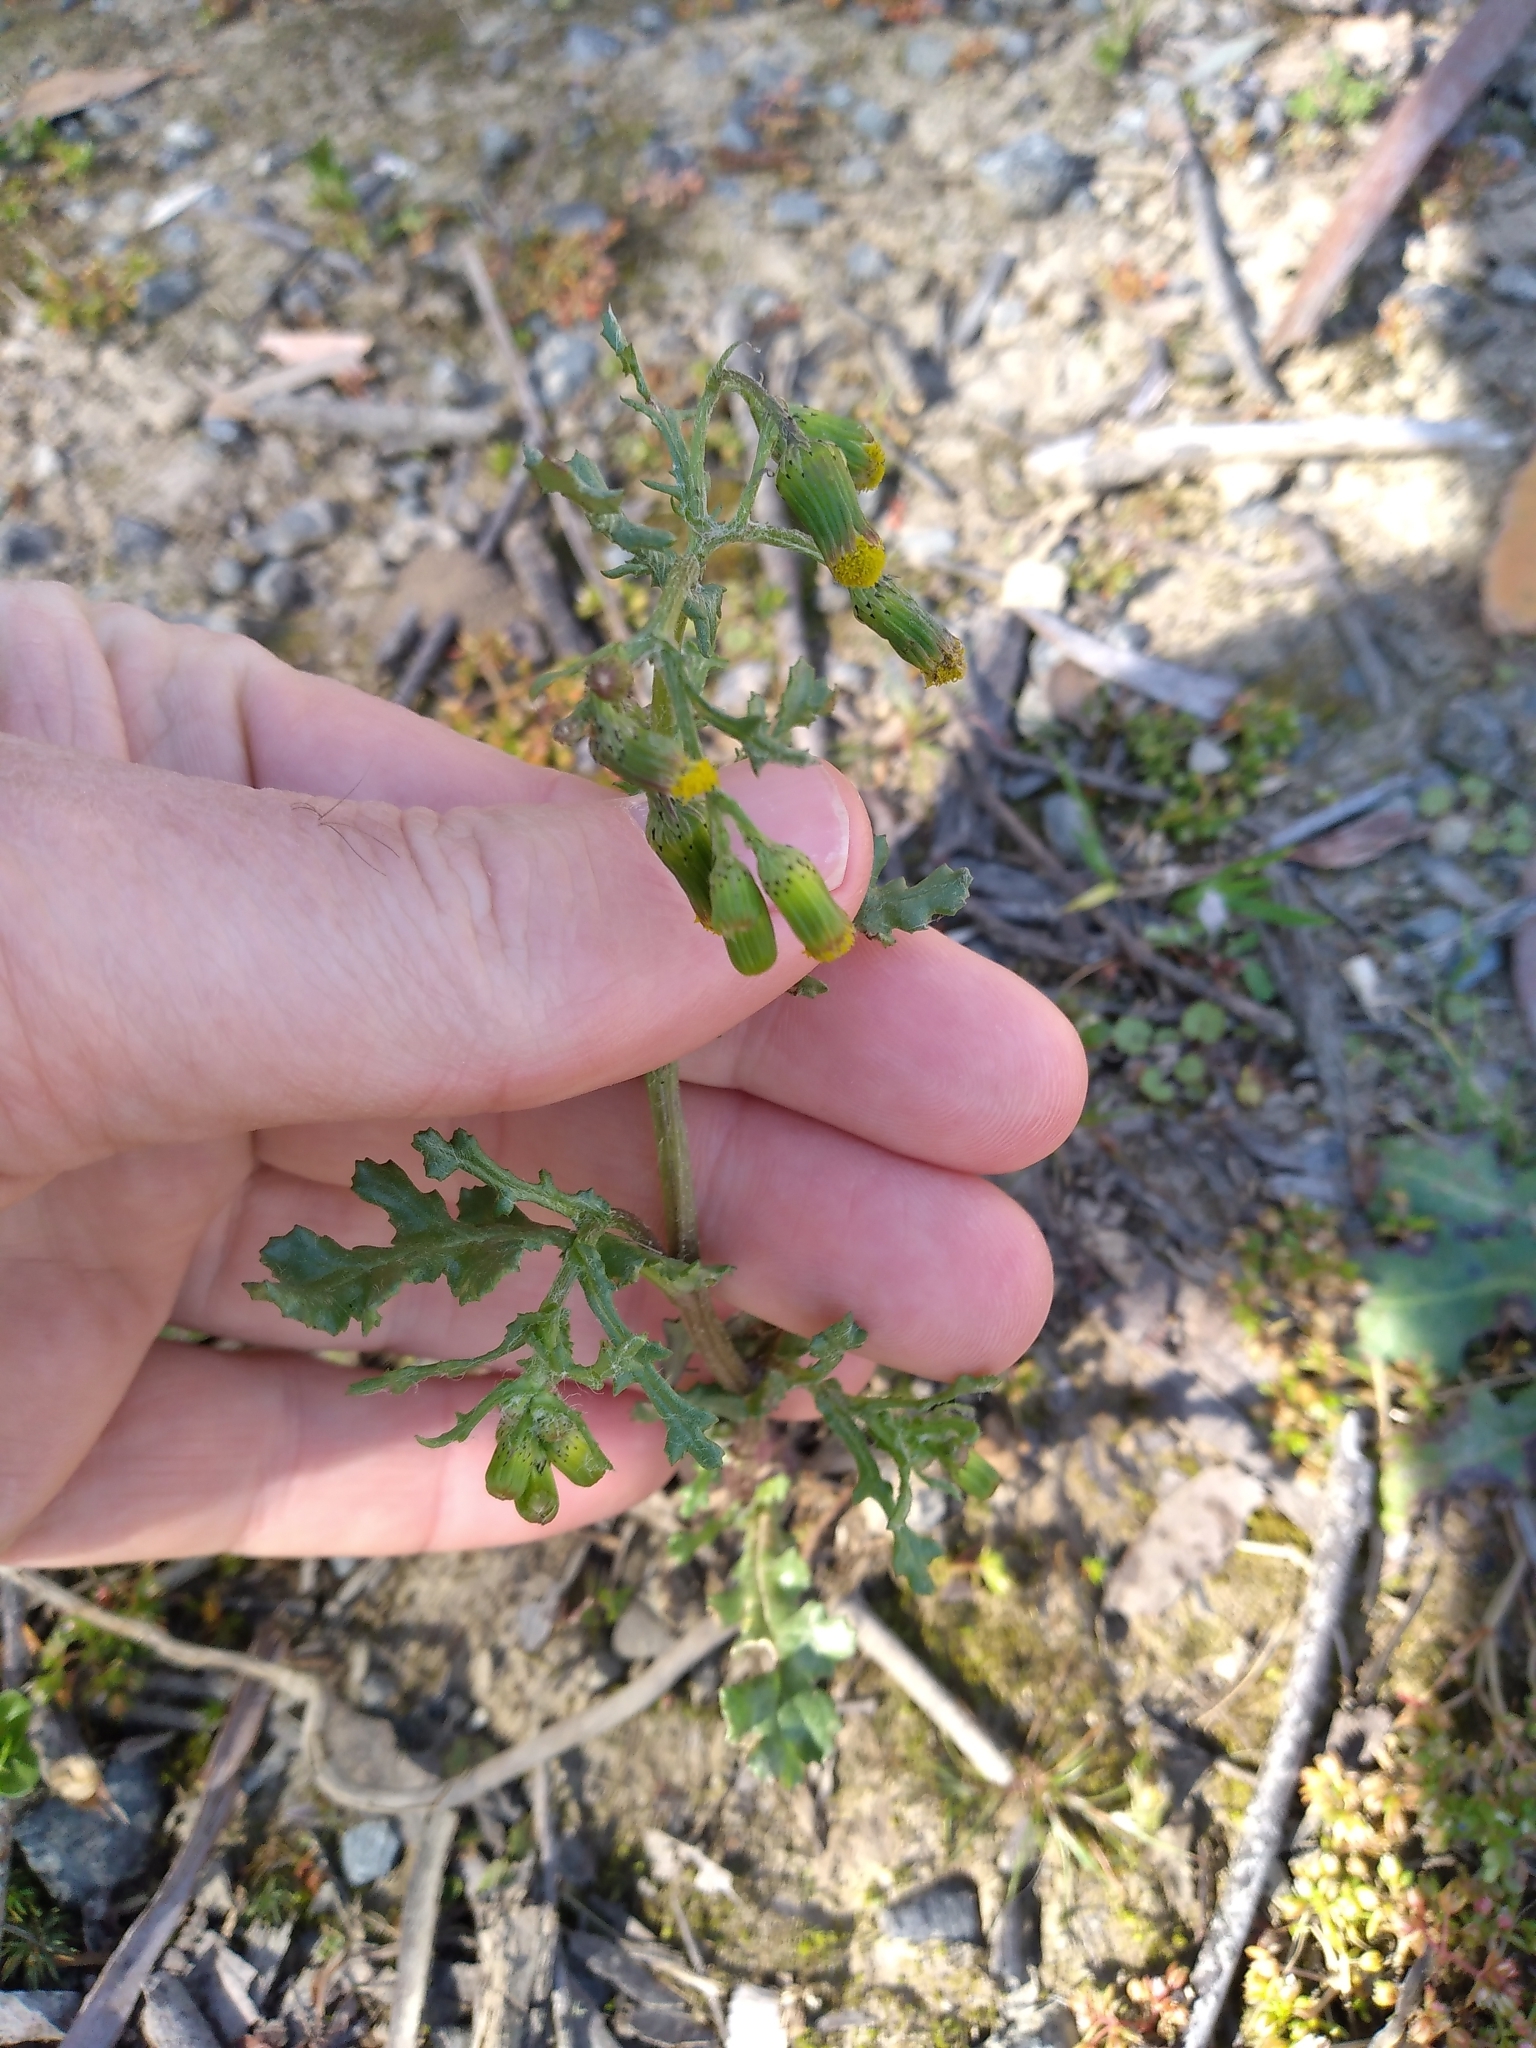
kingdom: Plantae
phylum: Tracheophyta
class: Magnoliopsida
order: Asterales
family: Asteraceae
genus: Senecio
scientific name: Senecio vulgaris
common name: Old-man-in-the-spring
